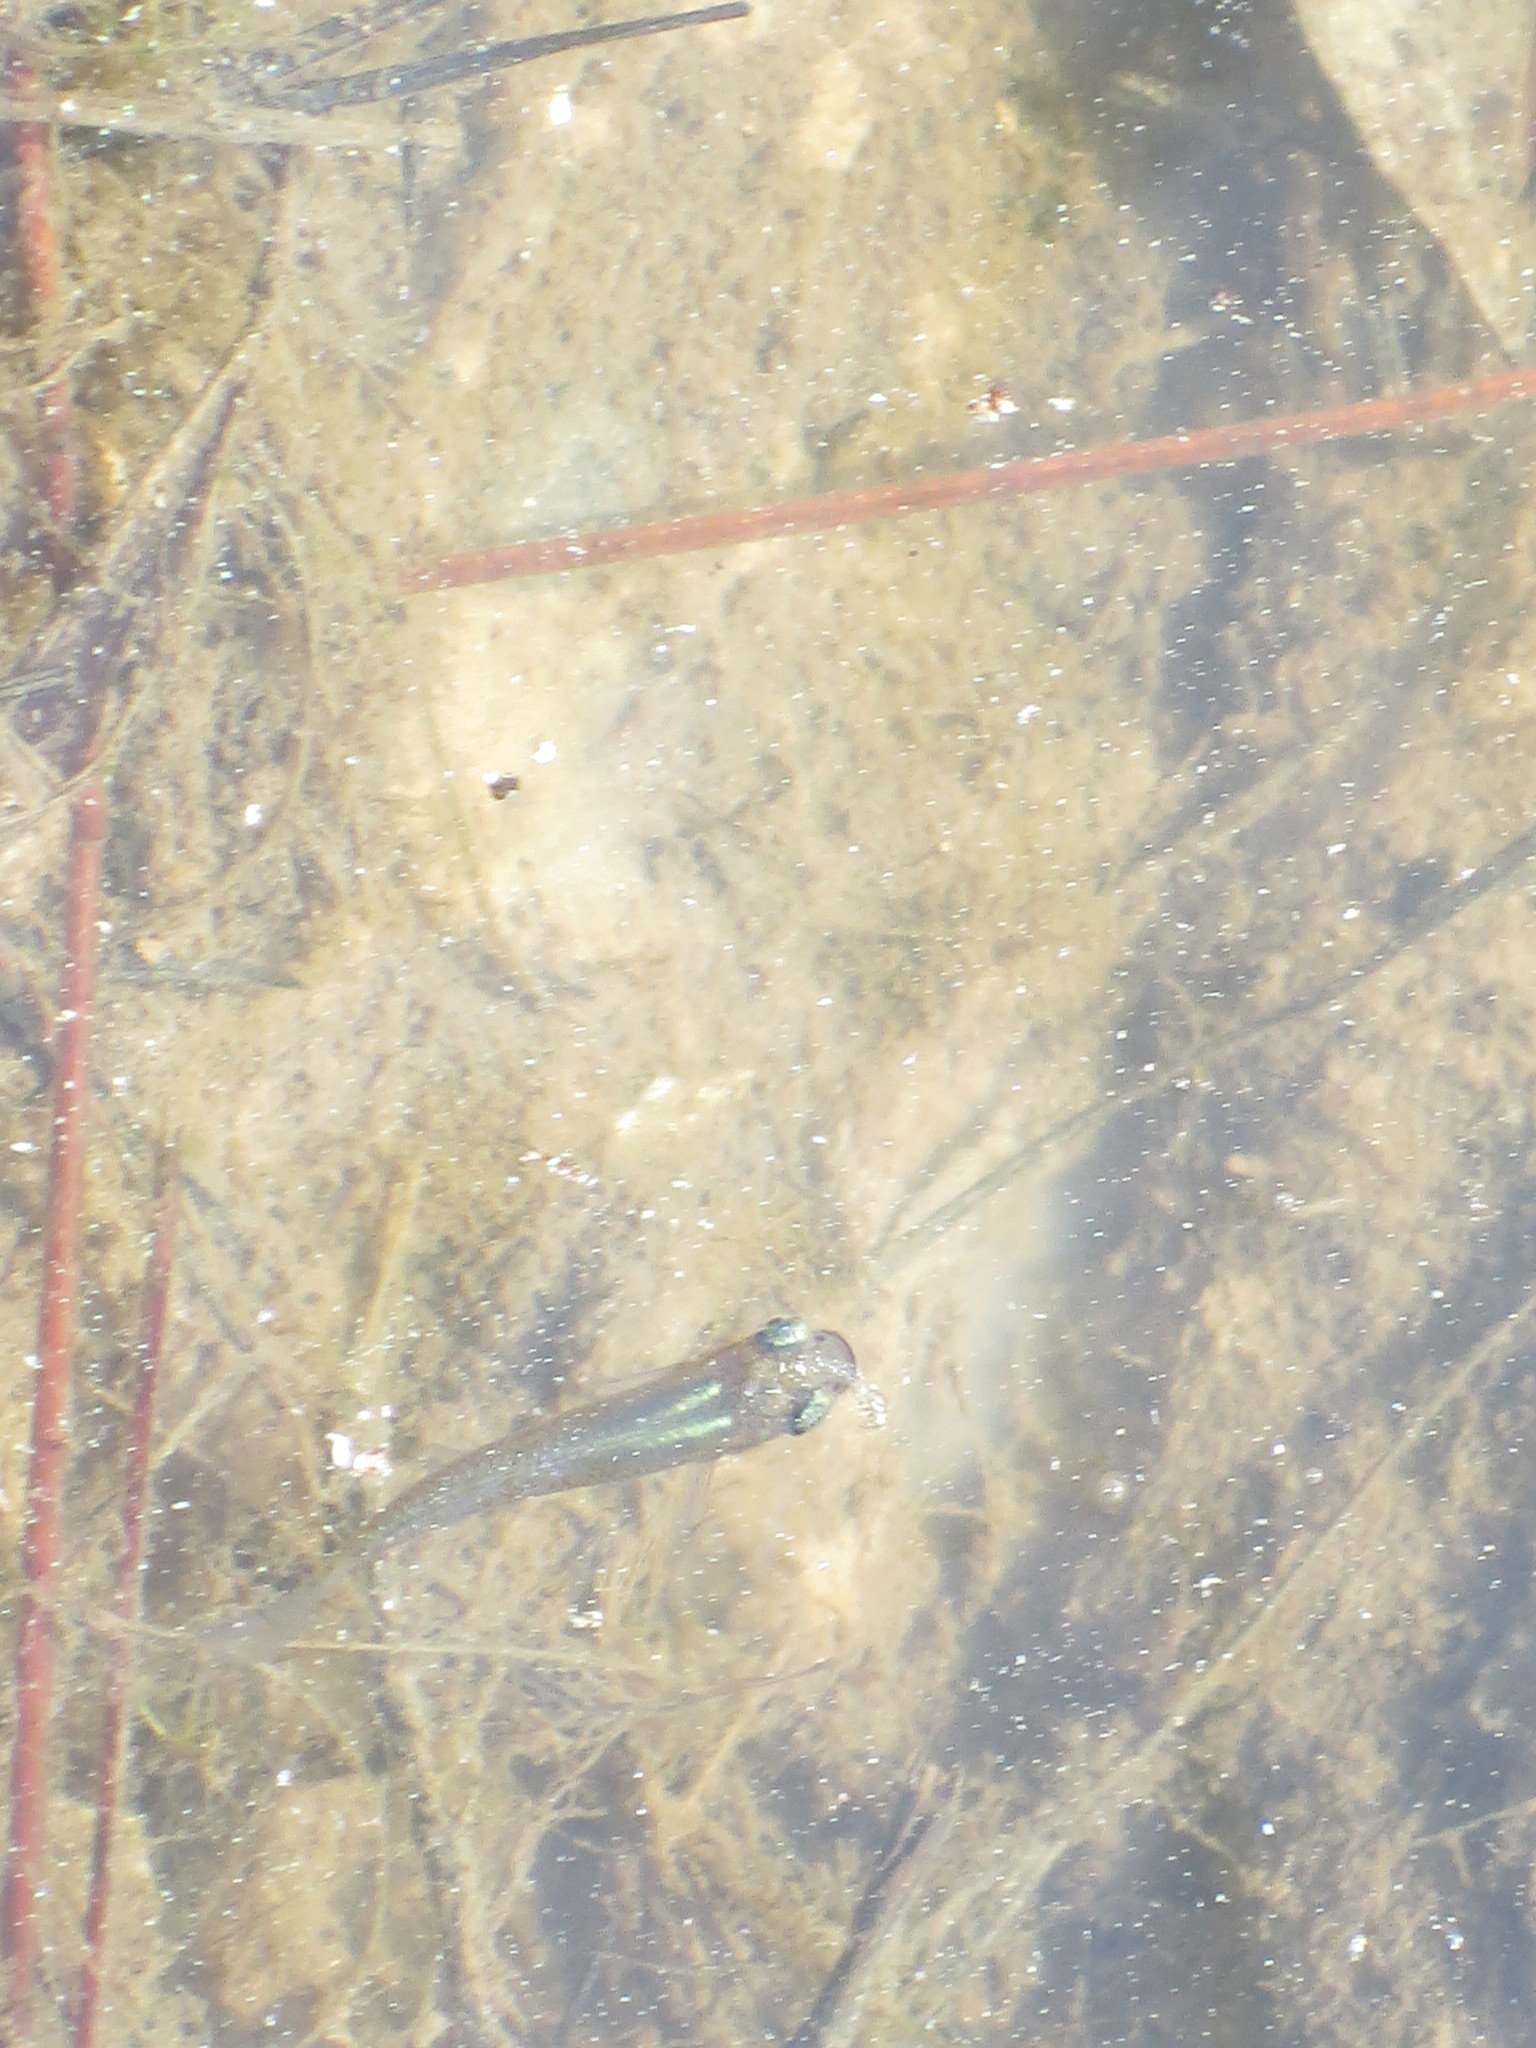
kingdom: Animalia
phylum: Chordata
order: Cyprinodontiformes
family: Poeciliidae
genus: Gambusia
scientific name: Gambusia holbrooki
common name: Eastern mosquitofish
